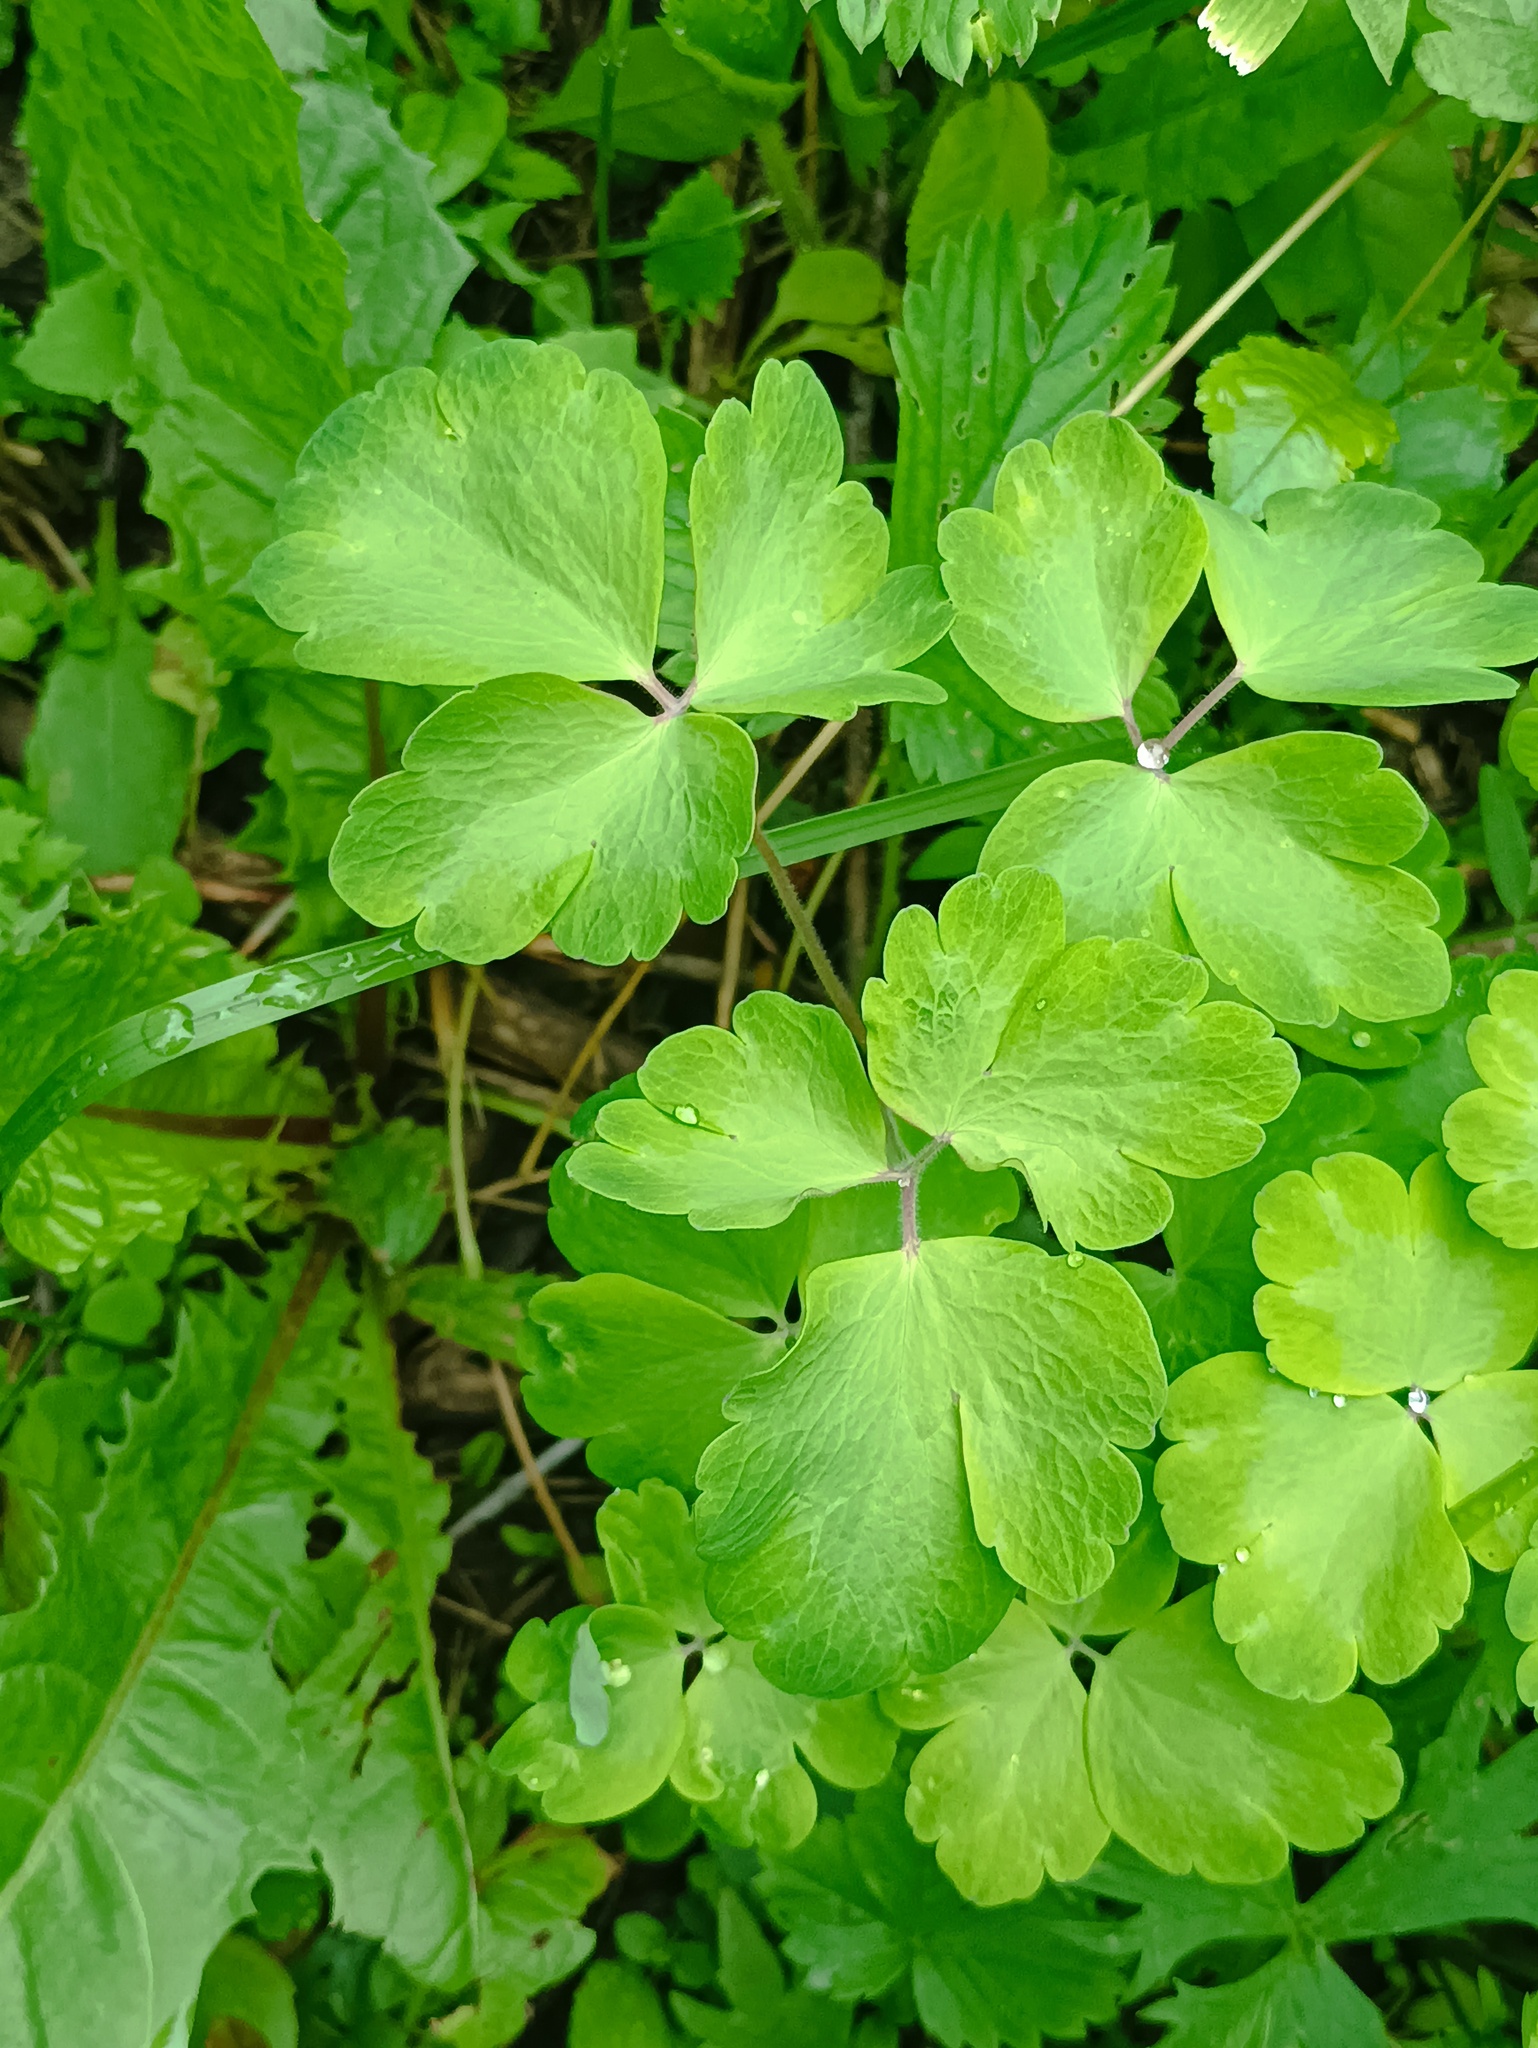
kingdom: Plantae
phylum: Tracheophyta
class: Magnoliopsida
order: Ranunculales
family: Ranunculaceae
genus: Aquilegia
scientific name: Aquilegia vulgaris
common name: Columbine
